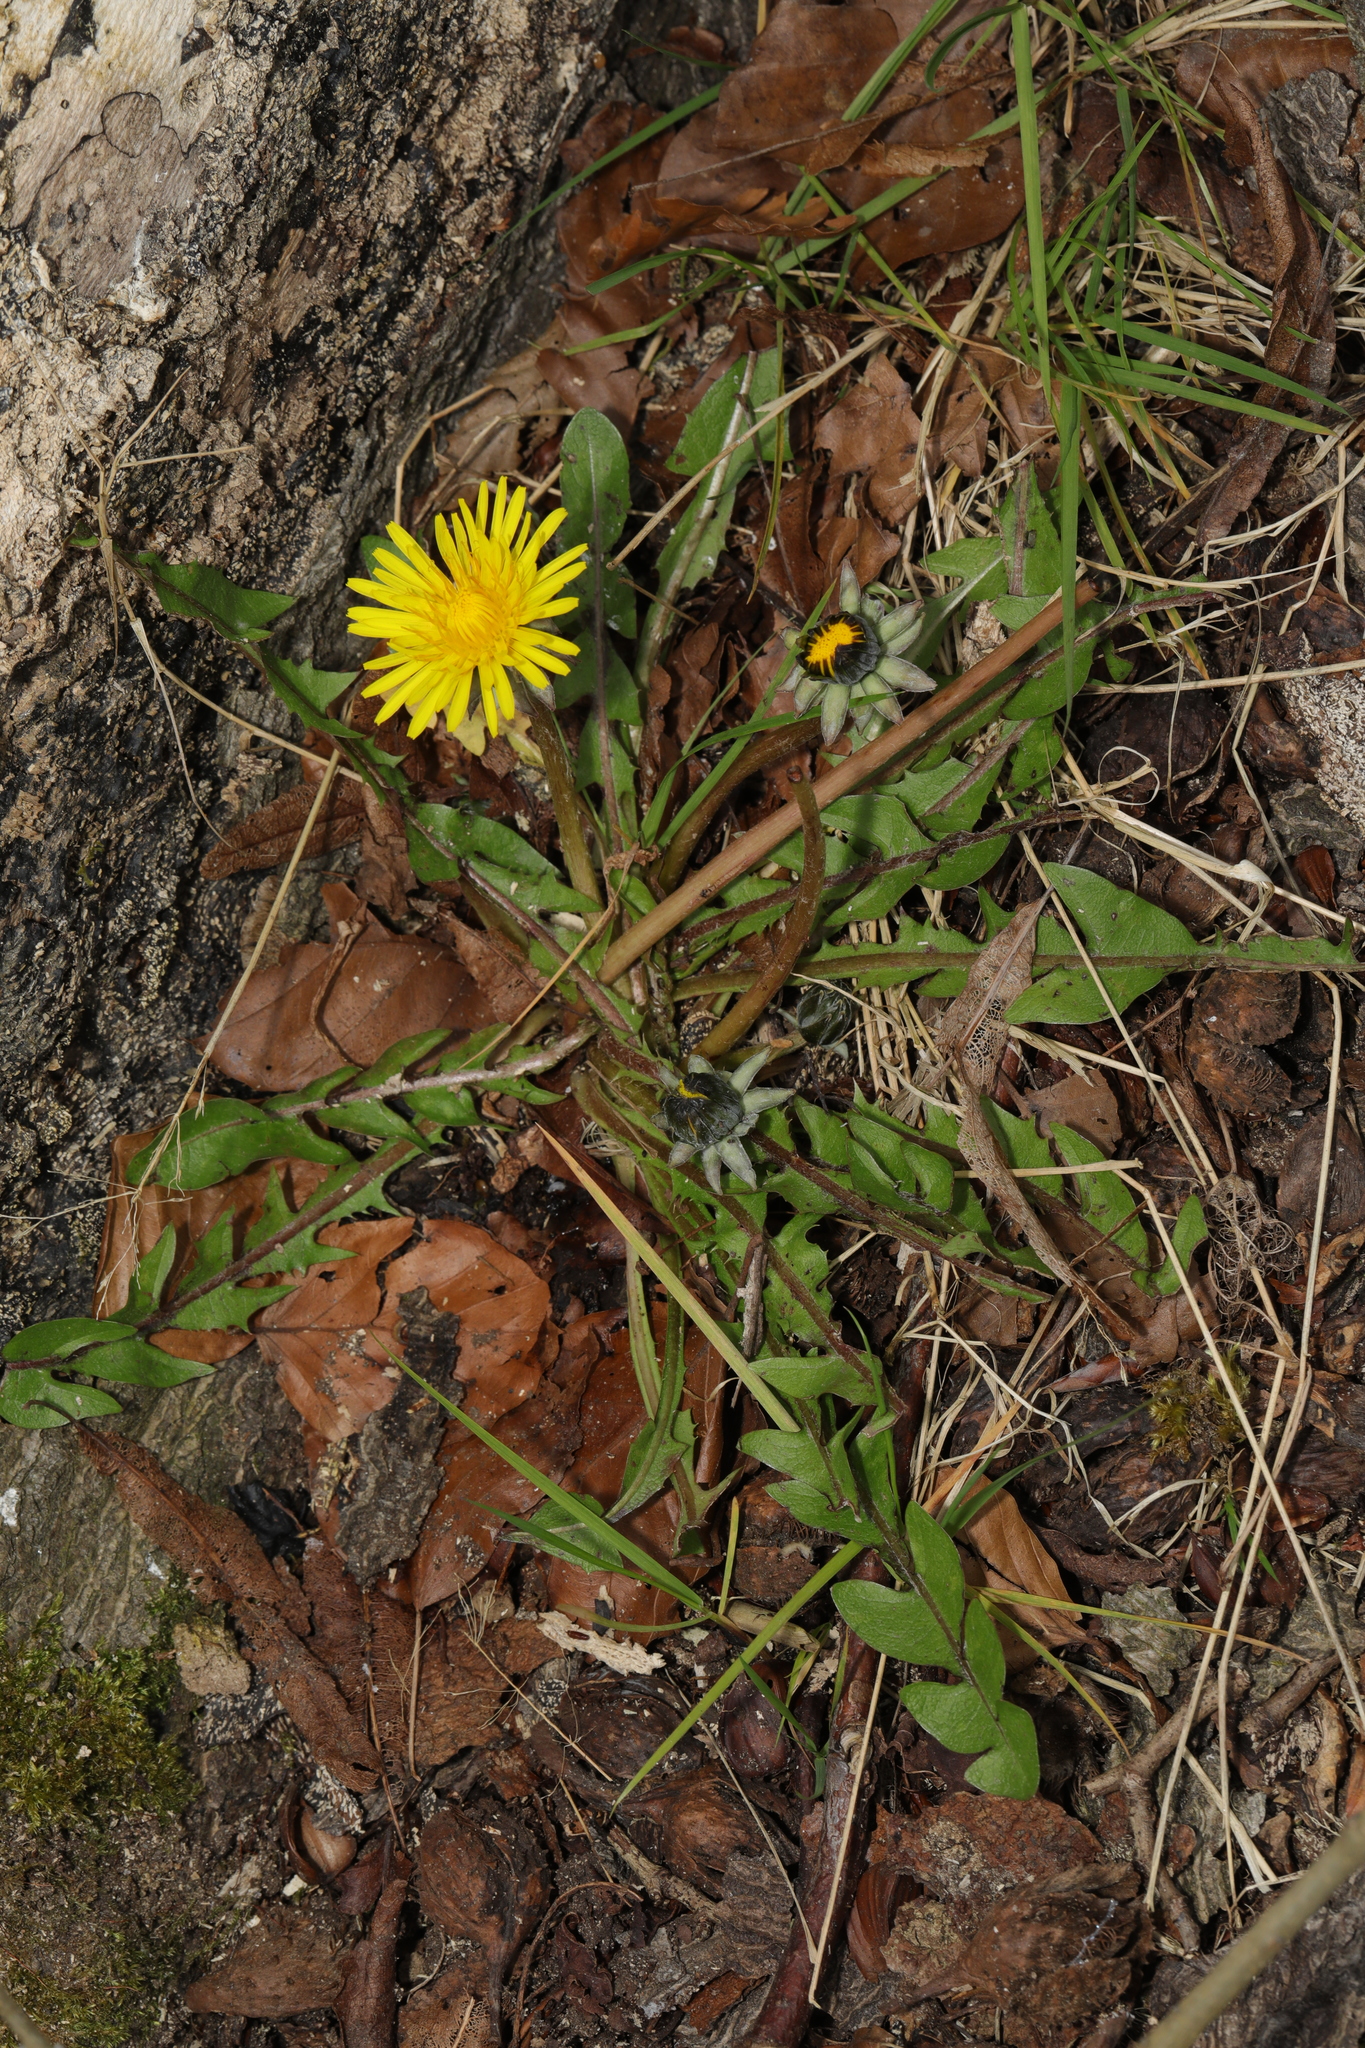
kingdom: Plantae
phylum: Tracheophyta
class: Magnoliopsida
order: Asterales
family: Asteraceae
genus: Taraxacum
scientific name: Taraxacum officinale
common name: Common dandelion
